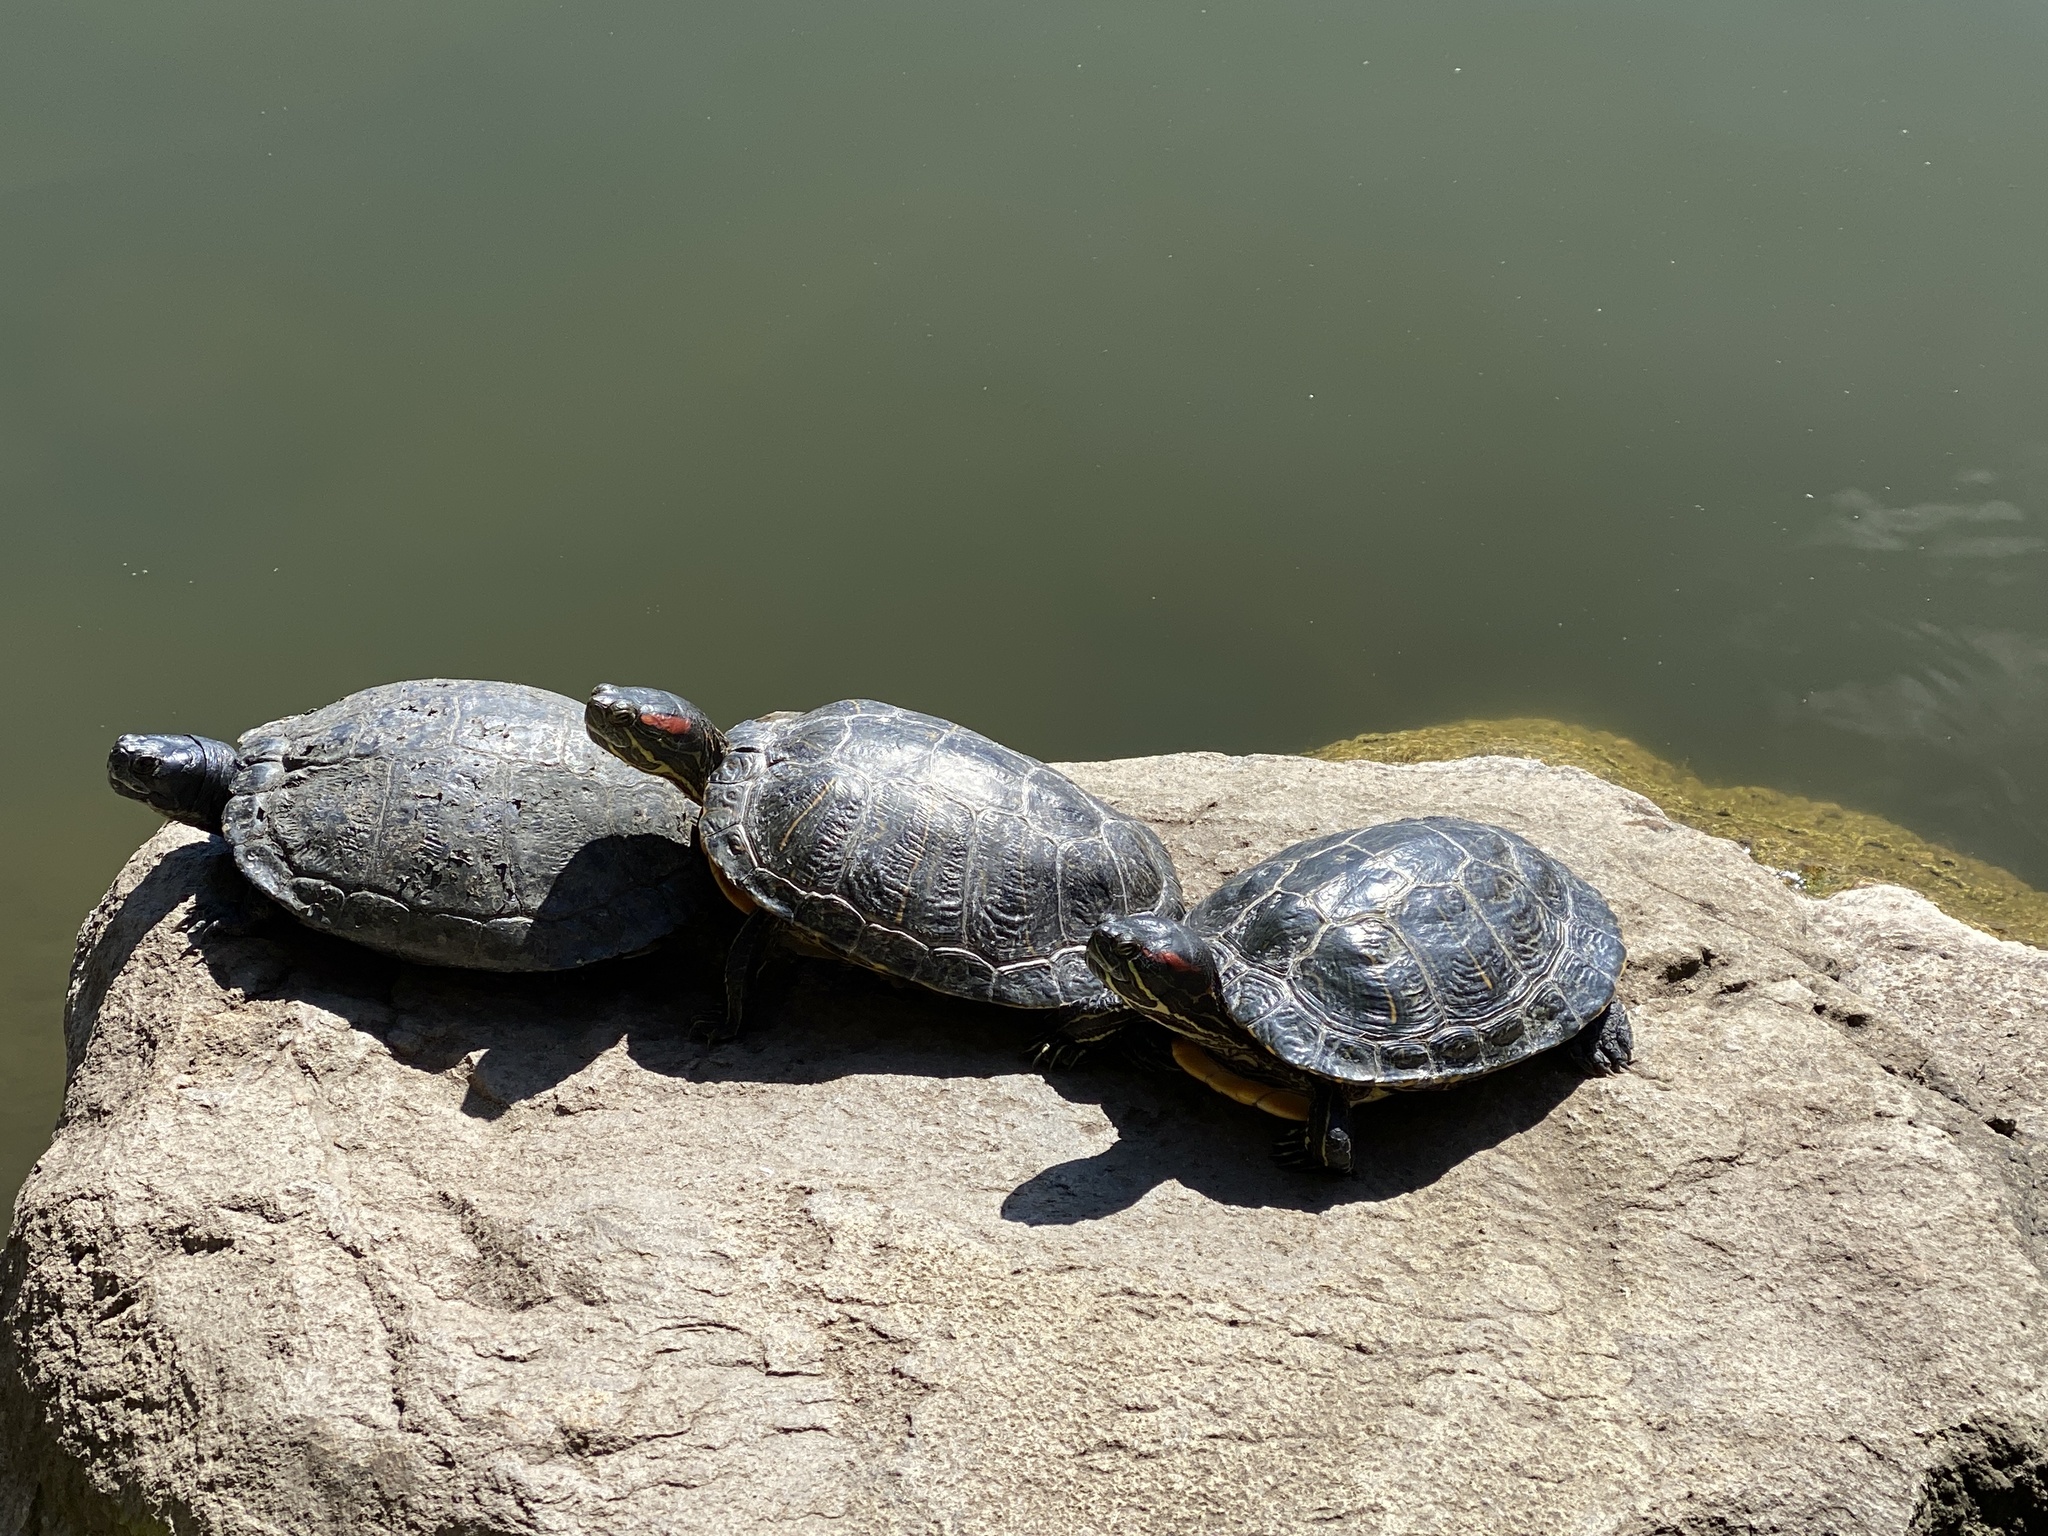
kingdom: Animalia
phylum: Chordata
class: Testudines
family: Emydidae
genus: Trachemys
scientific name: Trachemys scripta
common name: Slider
